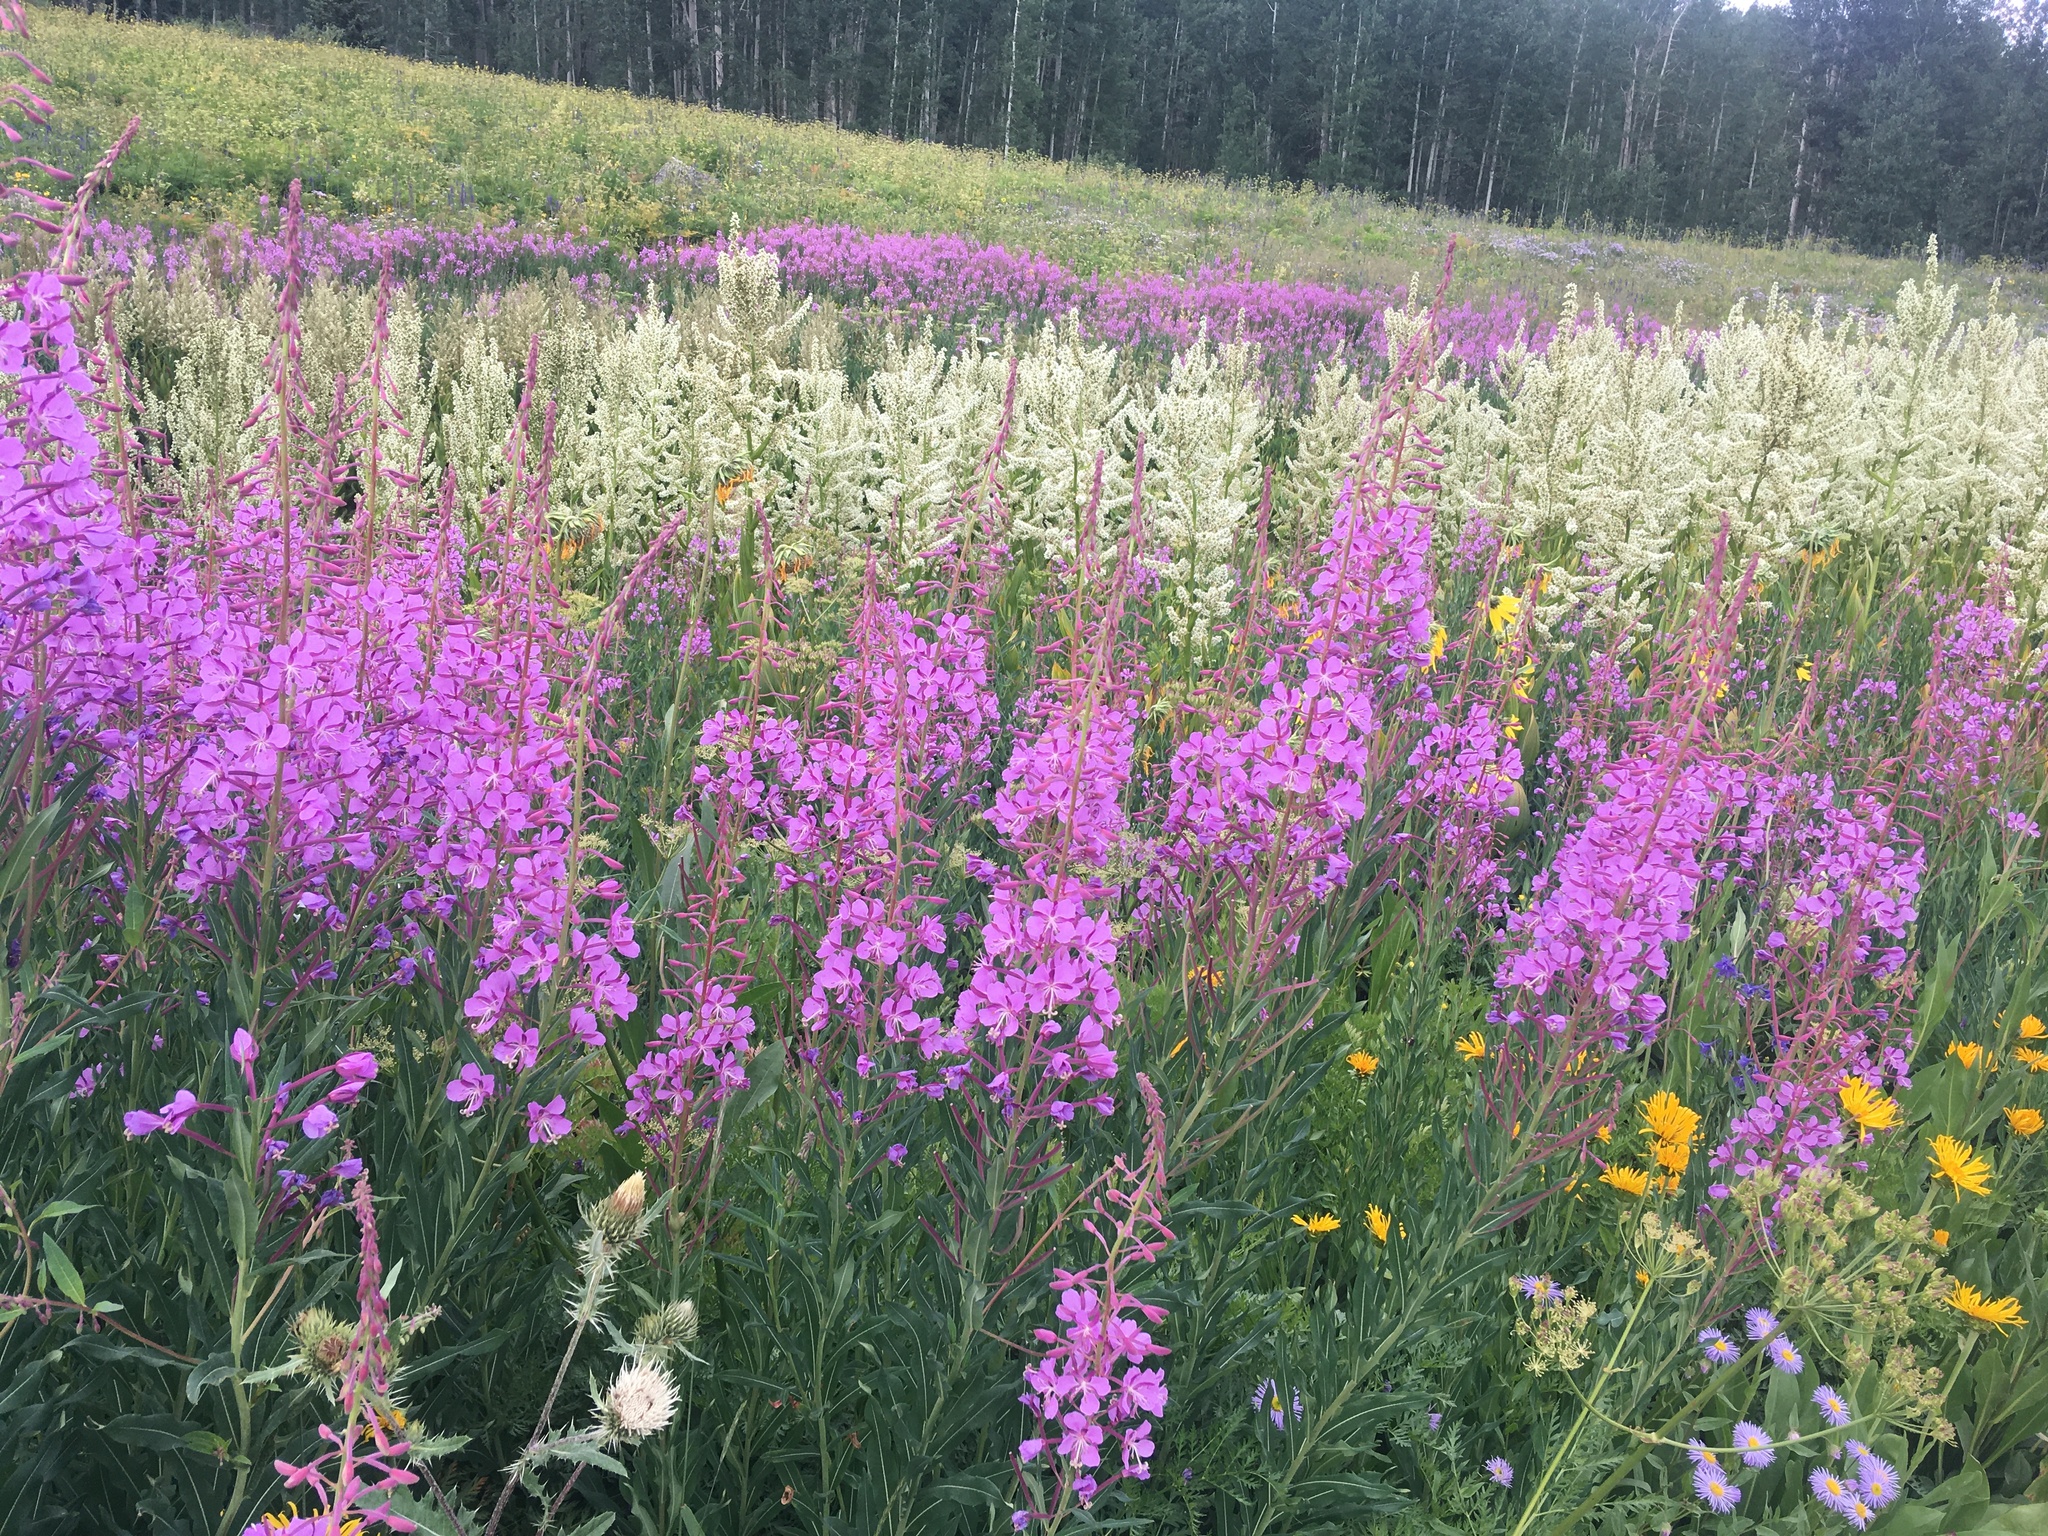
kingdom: Plantae
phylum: Tracheophyta
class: Magnoliopsida
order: Myrtales
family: Onagraceae
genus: Chamaenerion
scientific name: Chamaenerion angustifolium
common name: Fireweed
